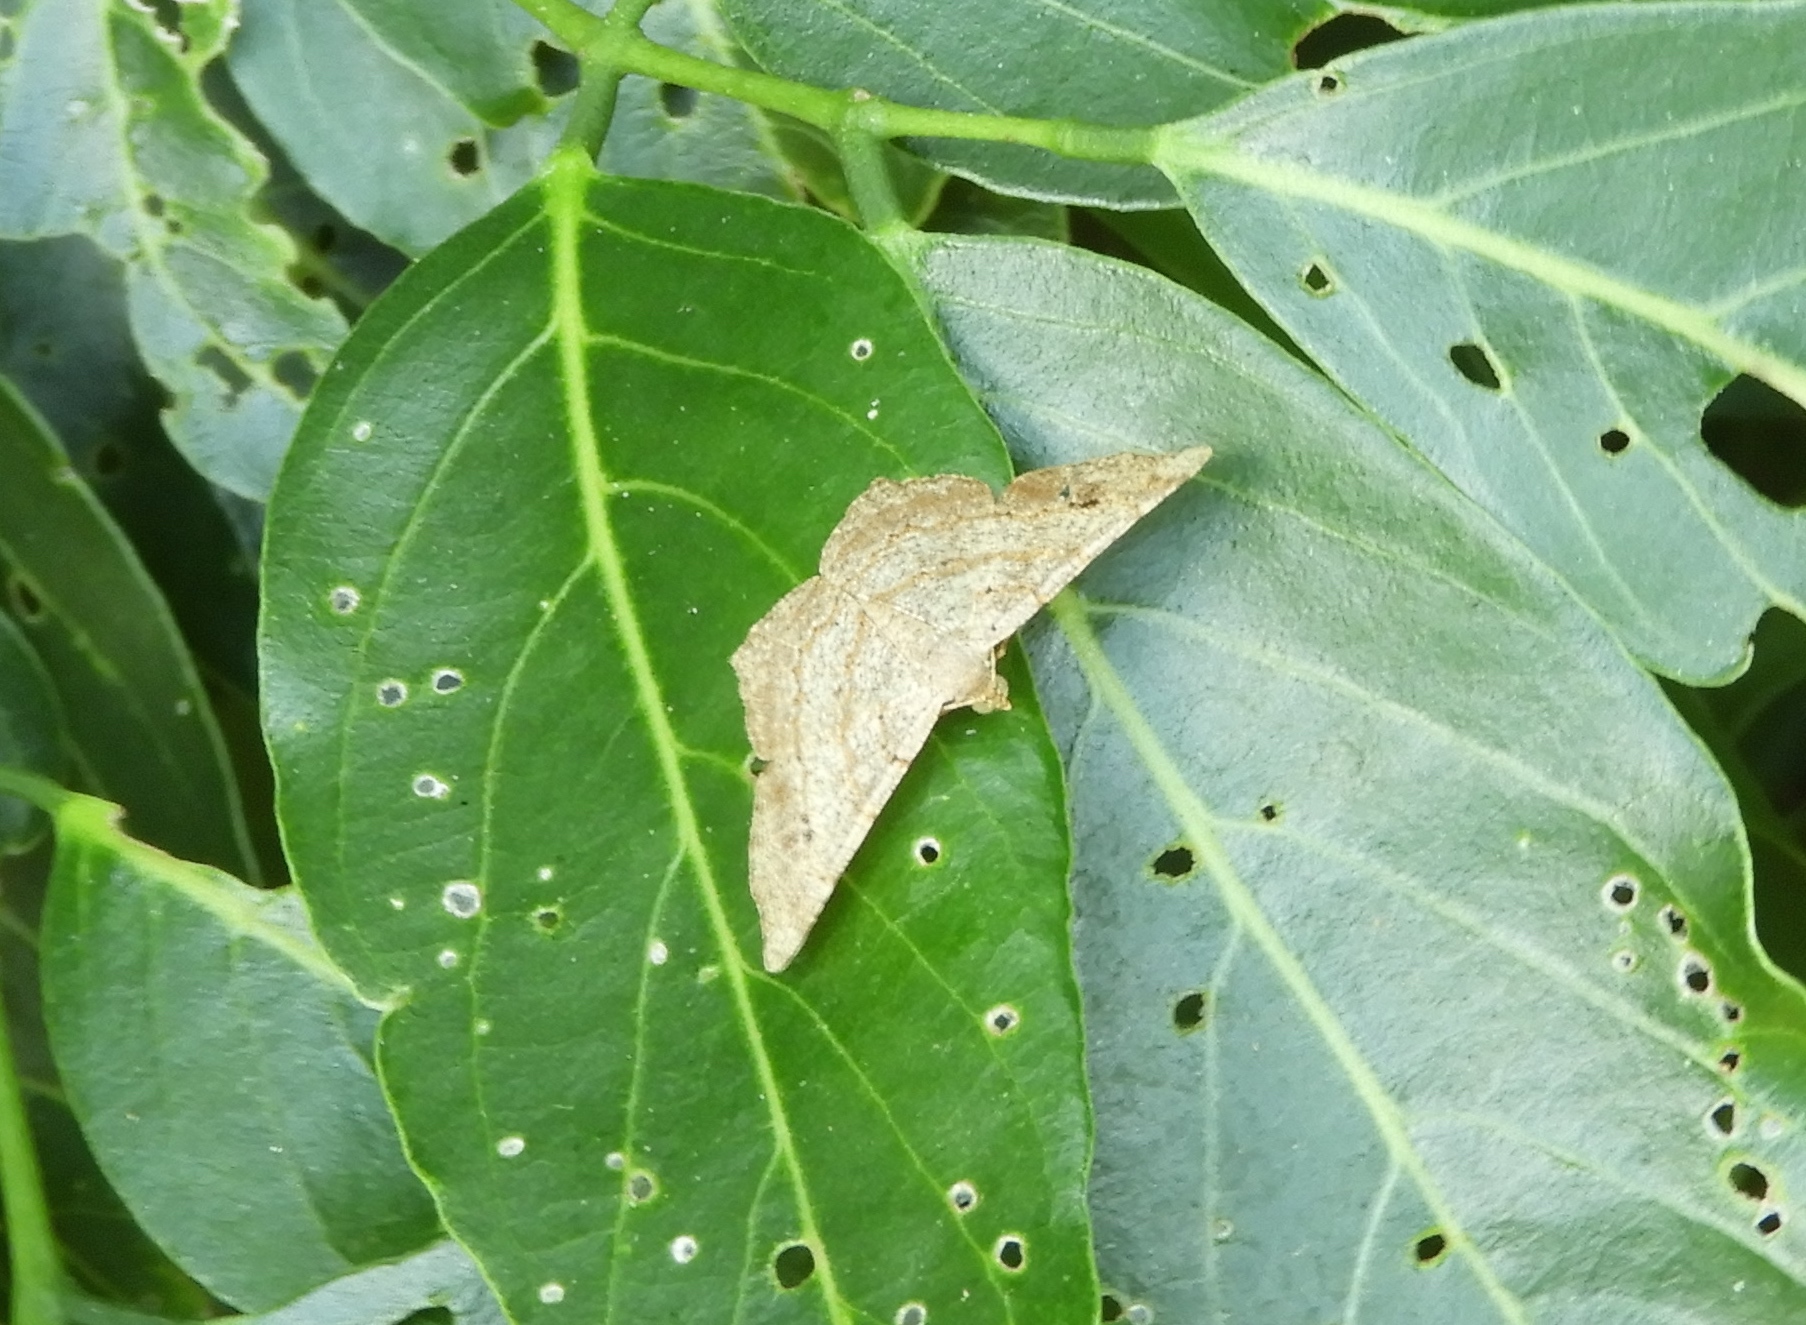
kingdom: Animalia
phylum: Arthropoda
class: Insecta
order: Lepidoptera
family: Geometridae
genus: Macaria
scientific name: Macaria abydata
